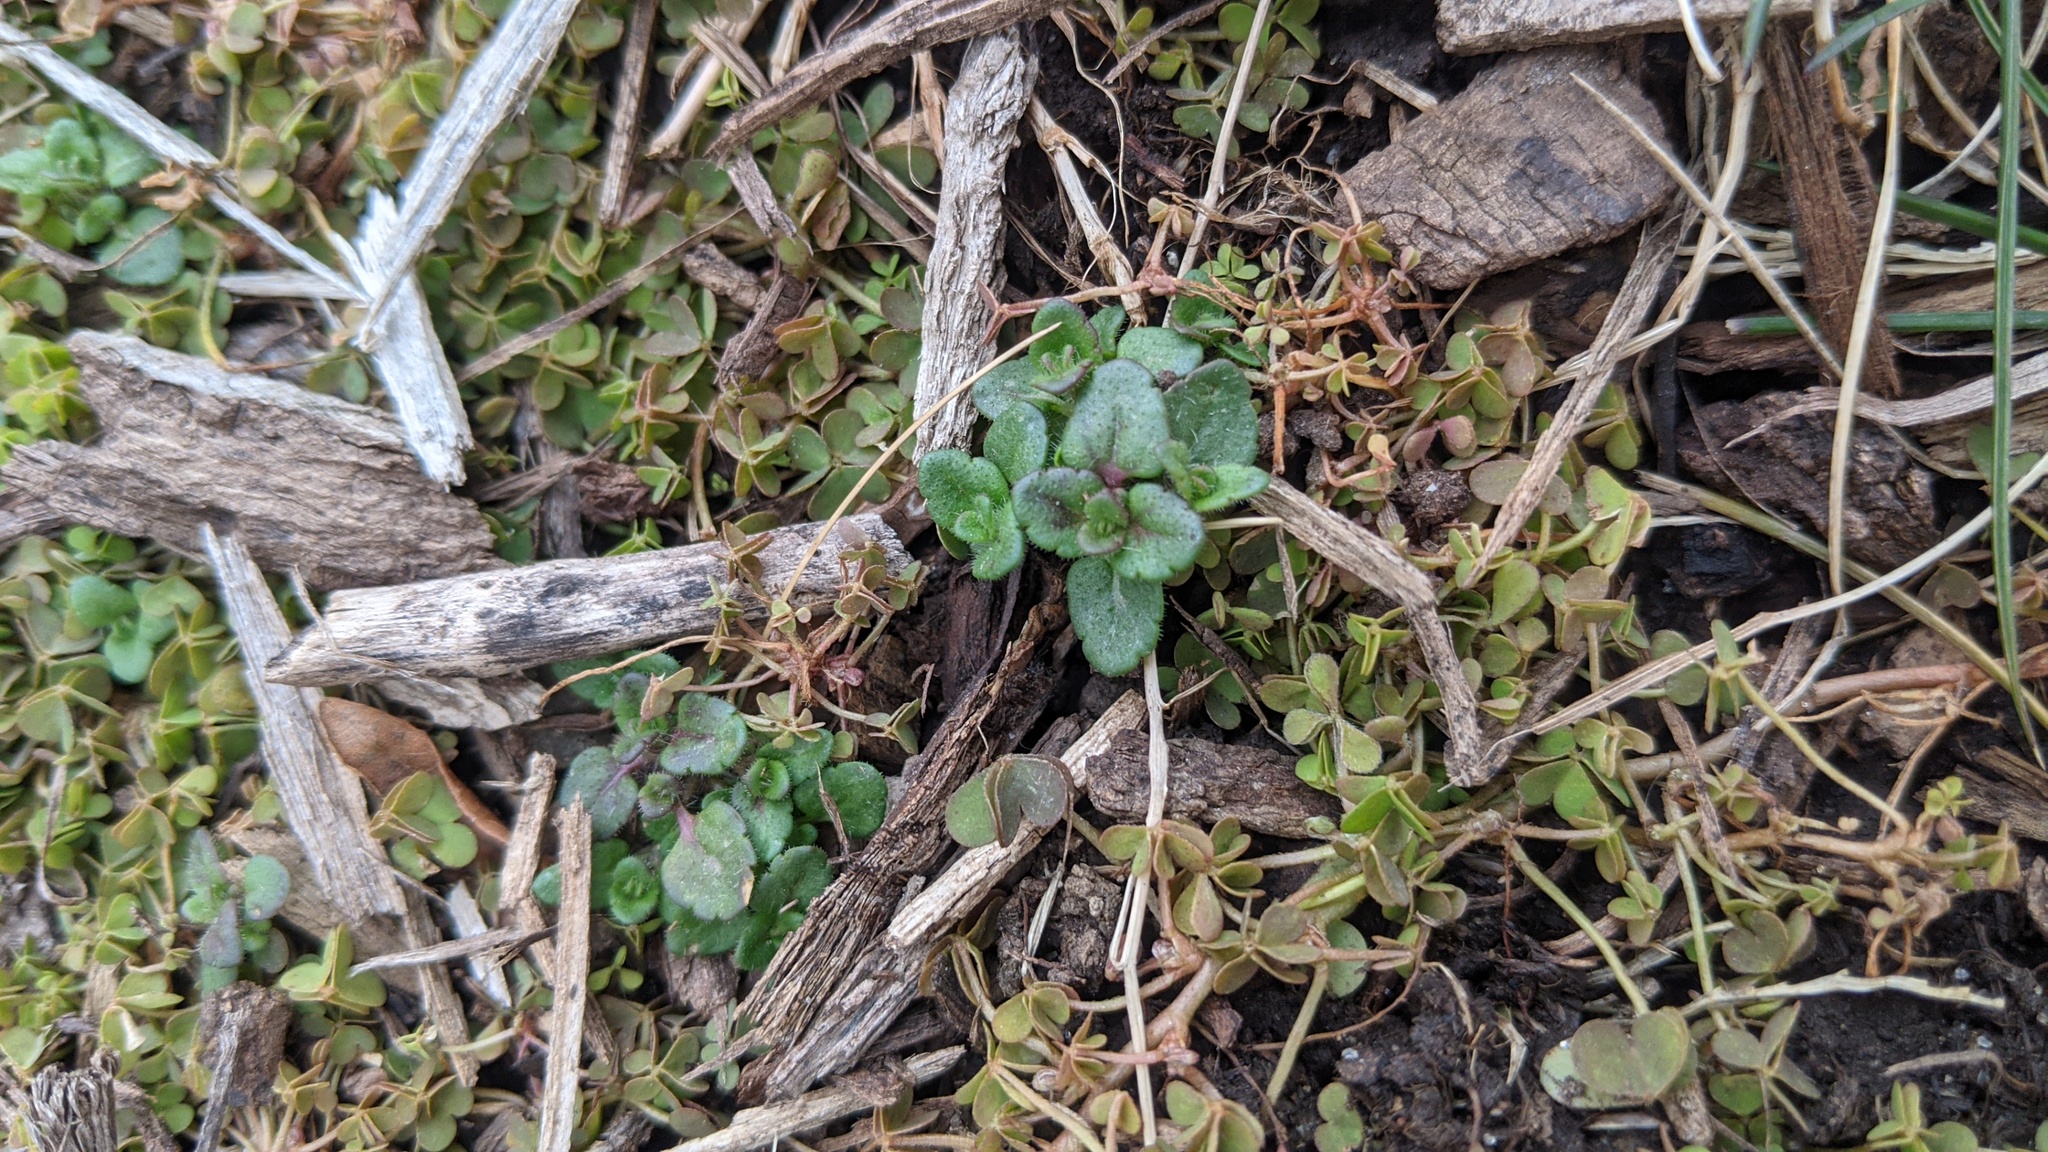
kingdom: Plantae
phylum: Tracheophyta
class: Magnoliopsida
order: Lamiales
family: Plantaginaceae
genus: Veronica
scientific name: Veronica arvensis
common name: Corn speedwell
